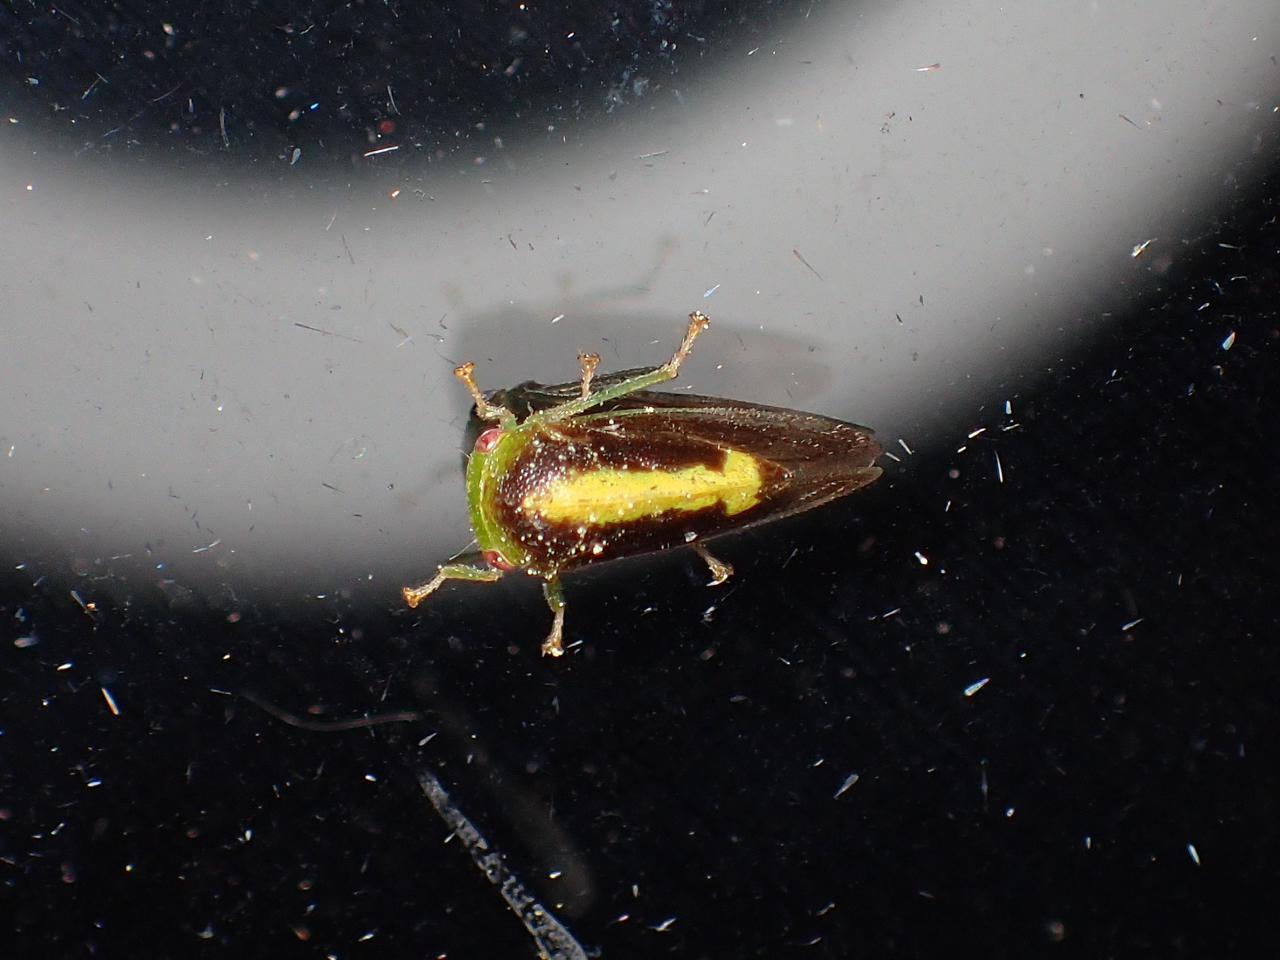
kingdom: Animalia
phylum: Arthropoda
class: Insecta
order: Hemiptera
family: Membracidae
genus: Atymna
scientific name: Atymna querci
